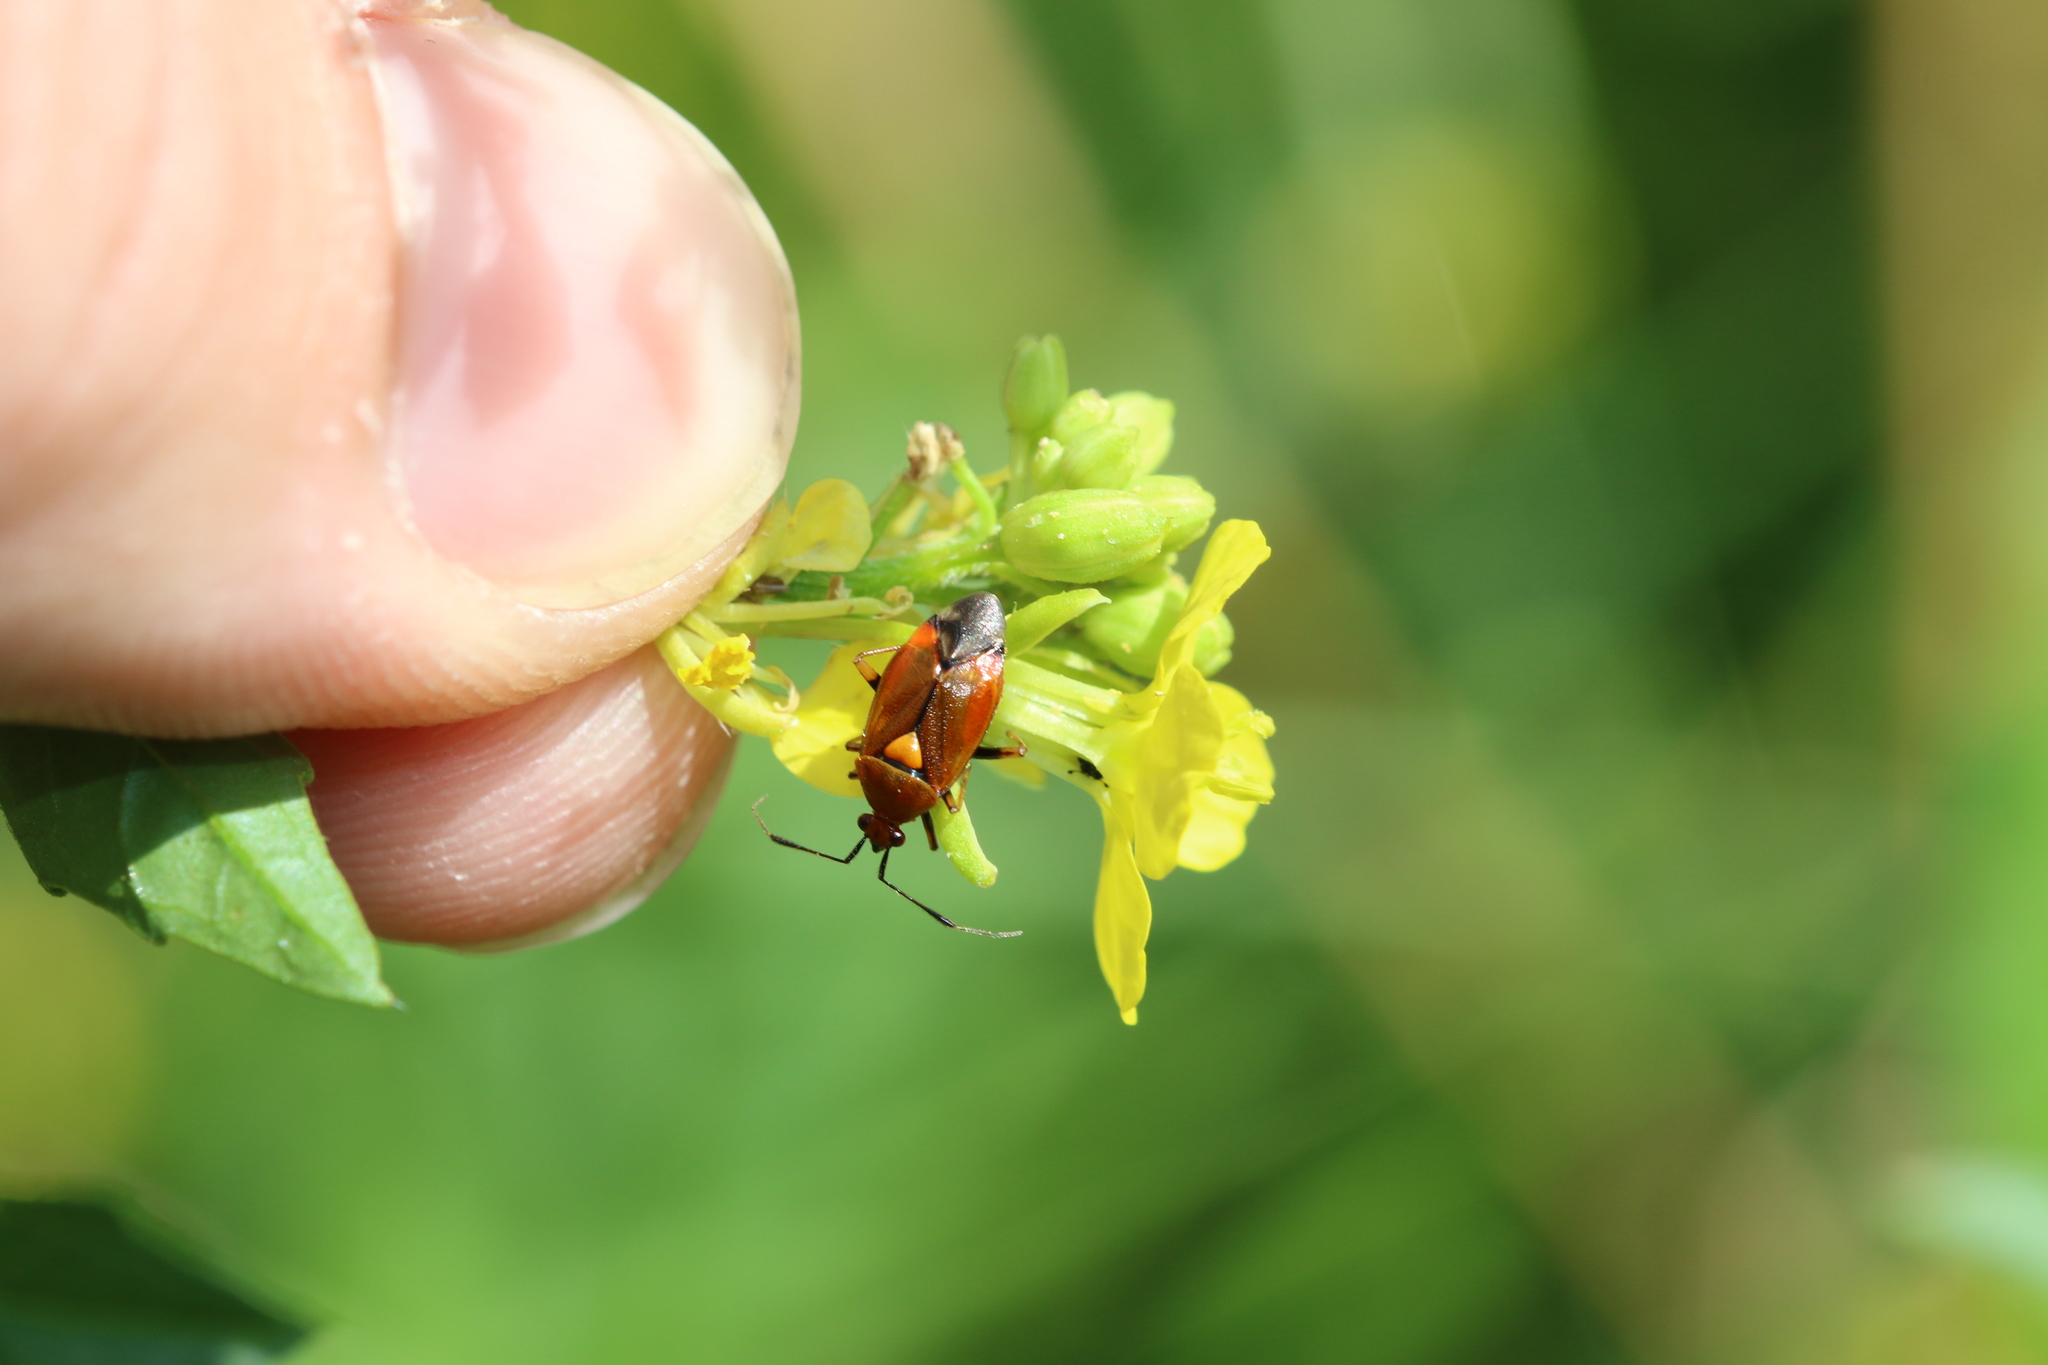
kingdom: Animalia
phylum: Arthropoda
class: Insecta
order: Hemiptera
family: Miridae
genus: Deraeocoris
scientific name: Deraeocoris ruber
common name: Plant bug
